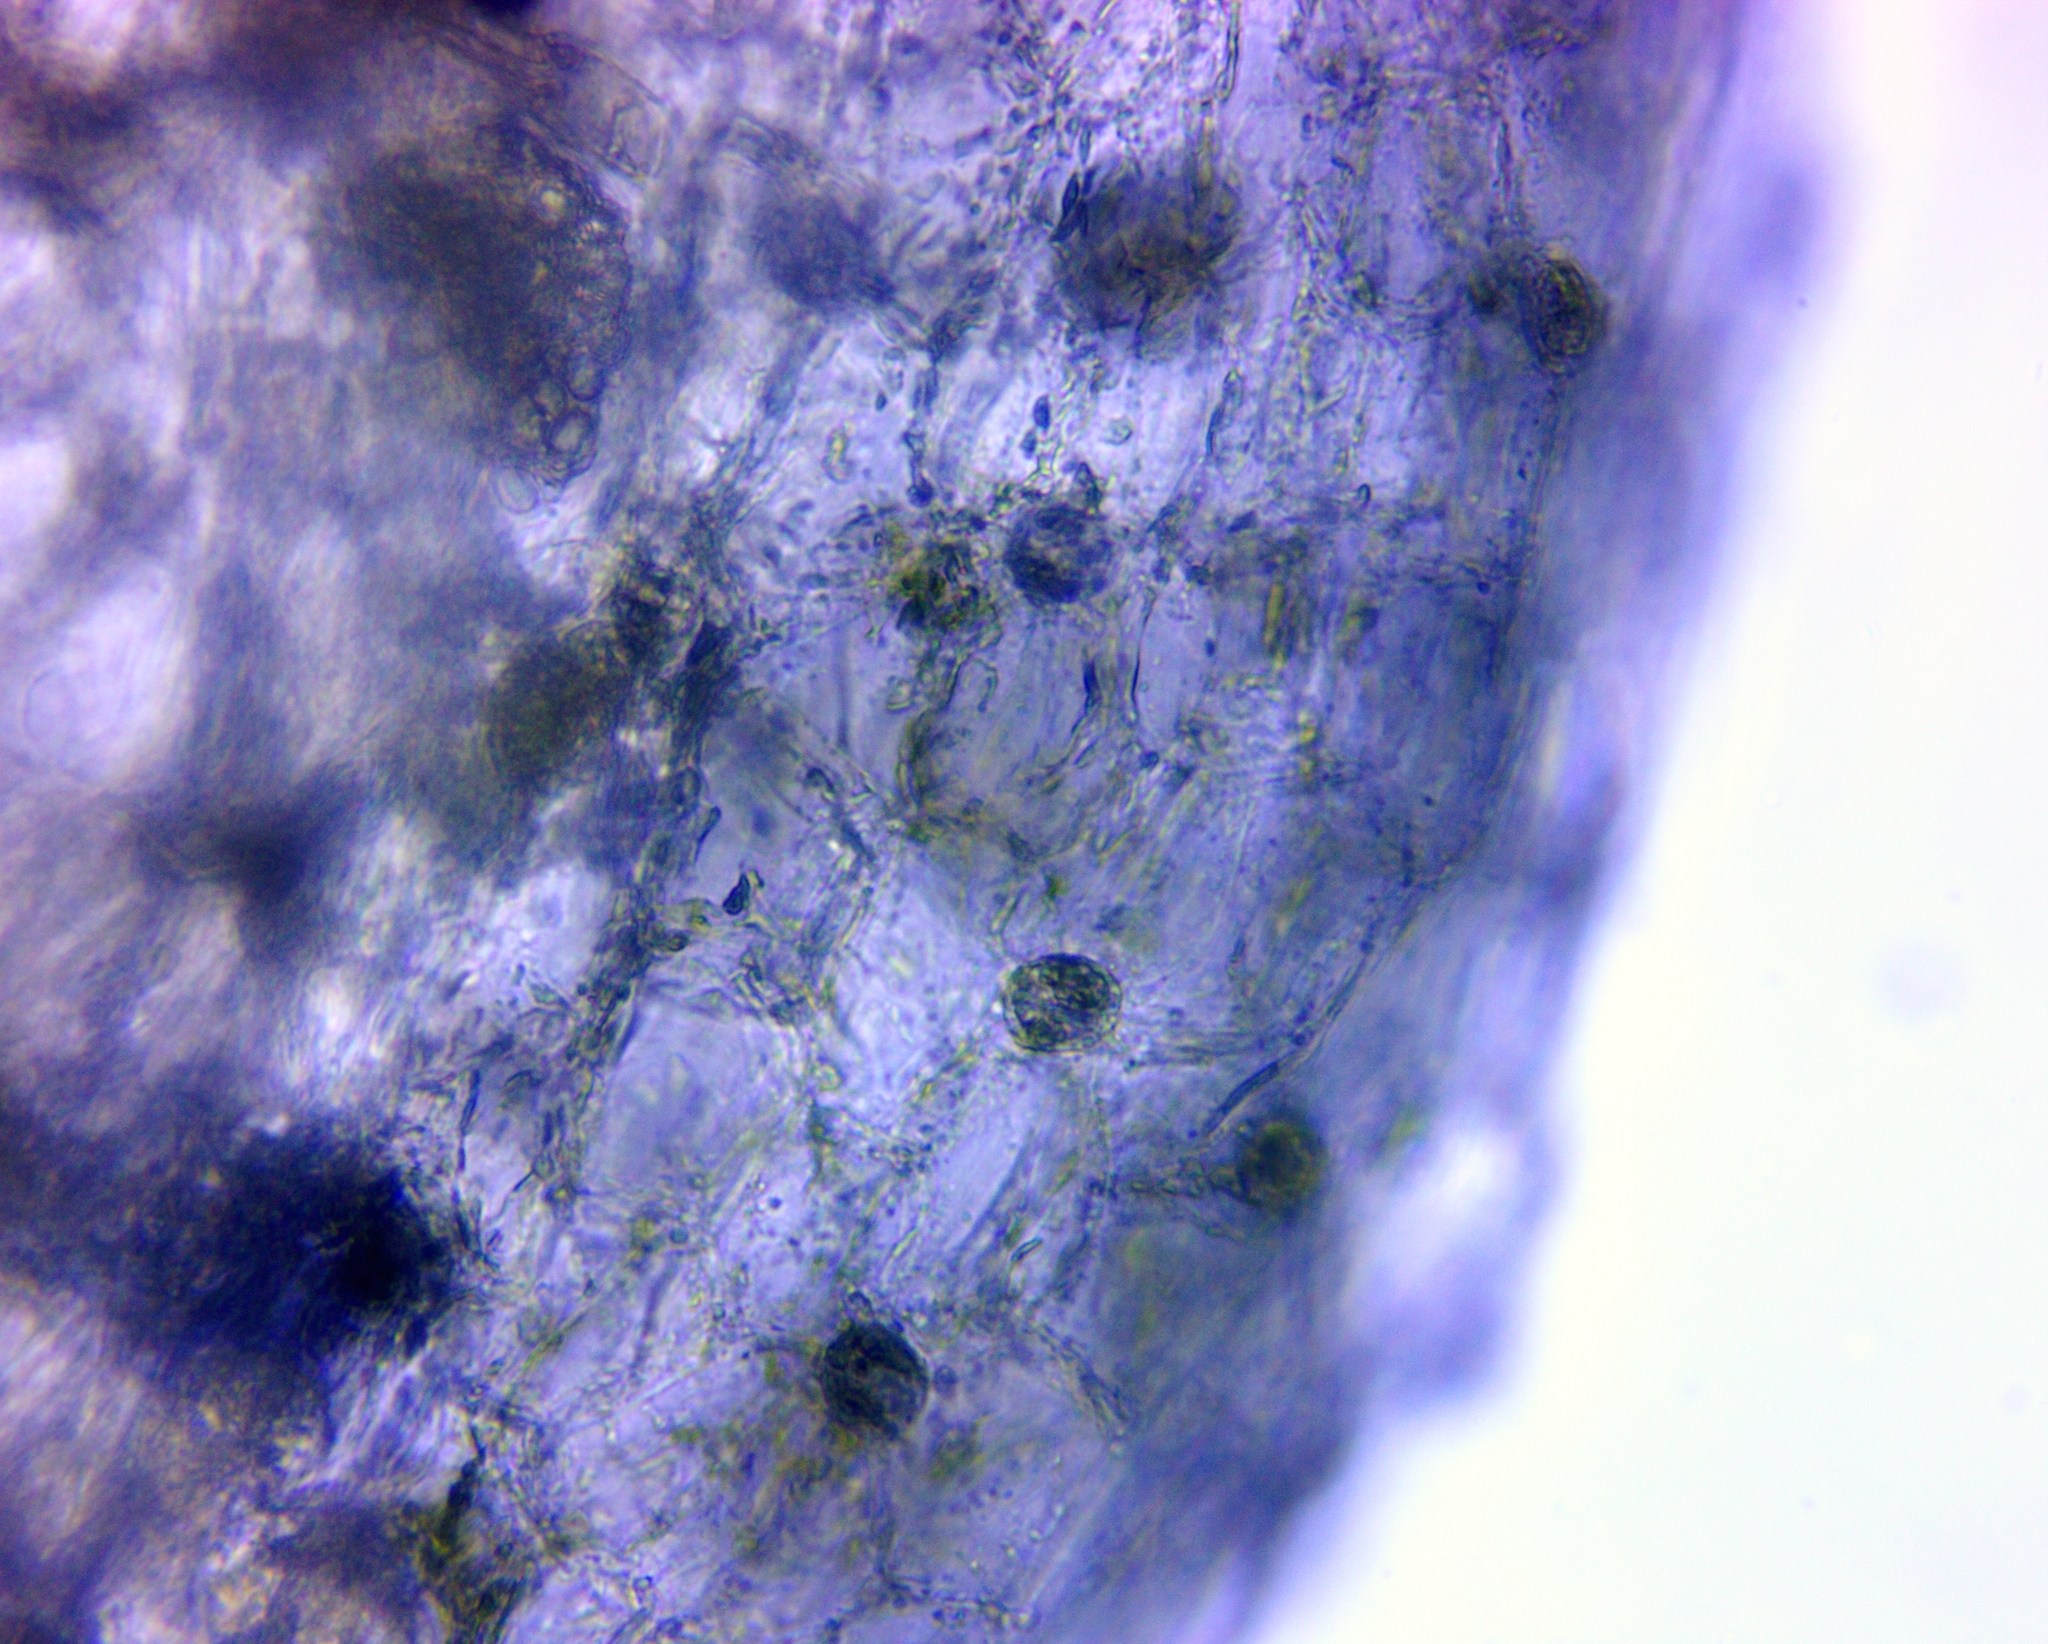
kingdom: Plantae
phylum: Tracheophyta
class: Magnoliopsida
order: Lamiales
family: Lentibulariaceae
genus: Utricularia
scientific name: Utricularia striata
